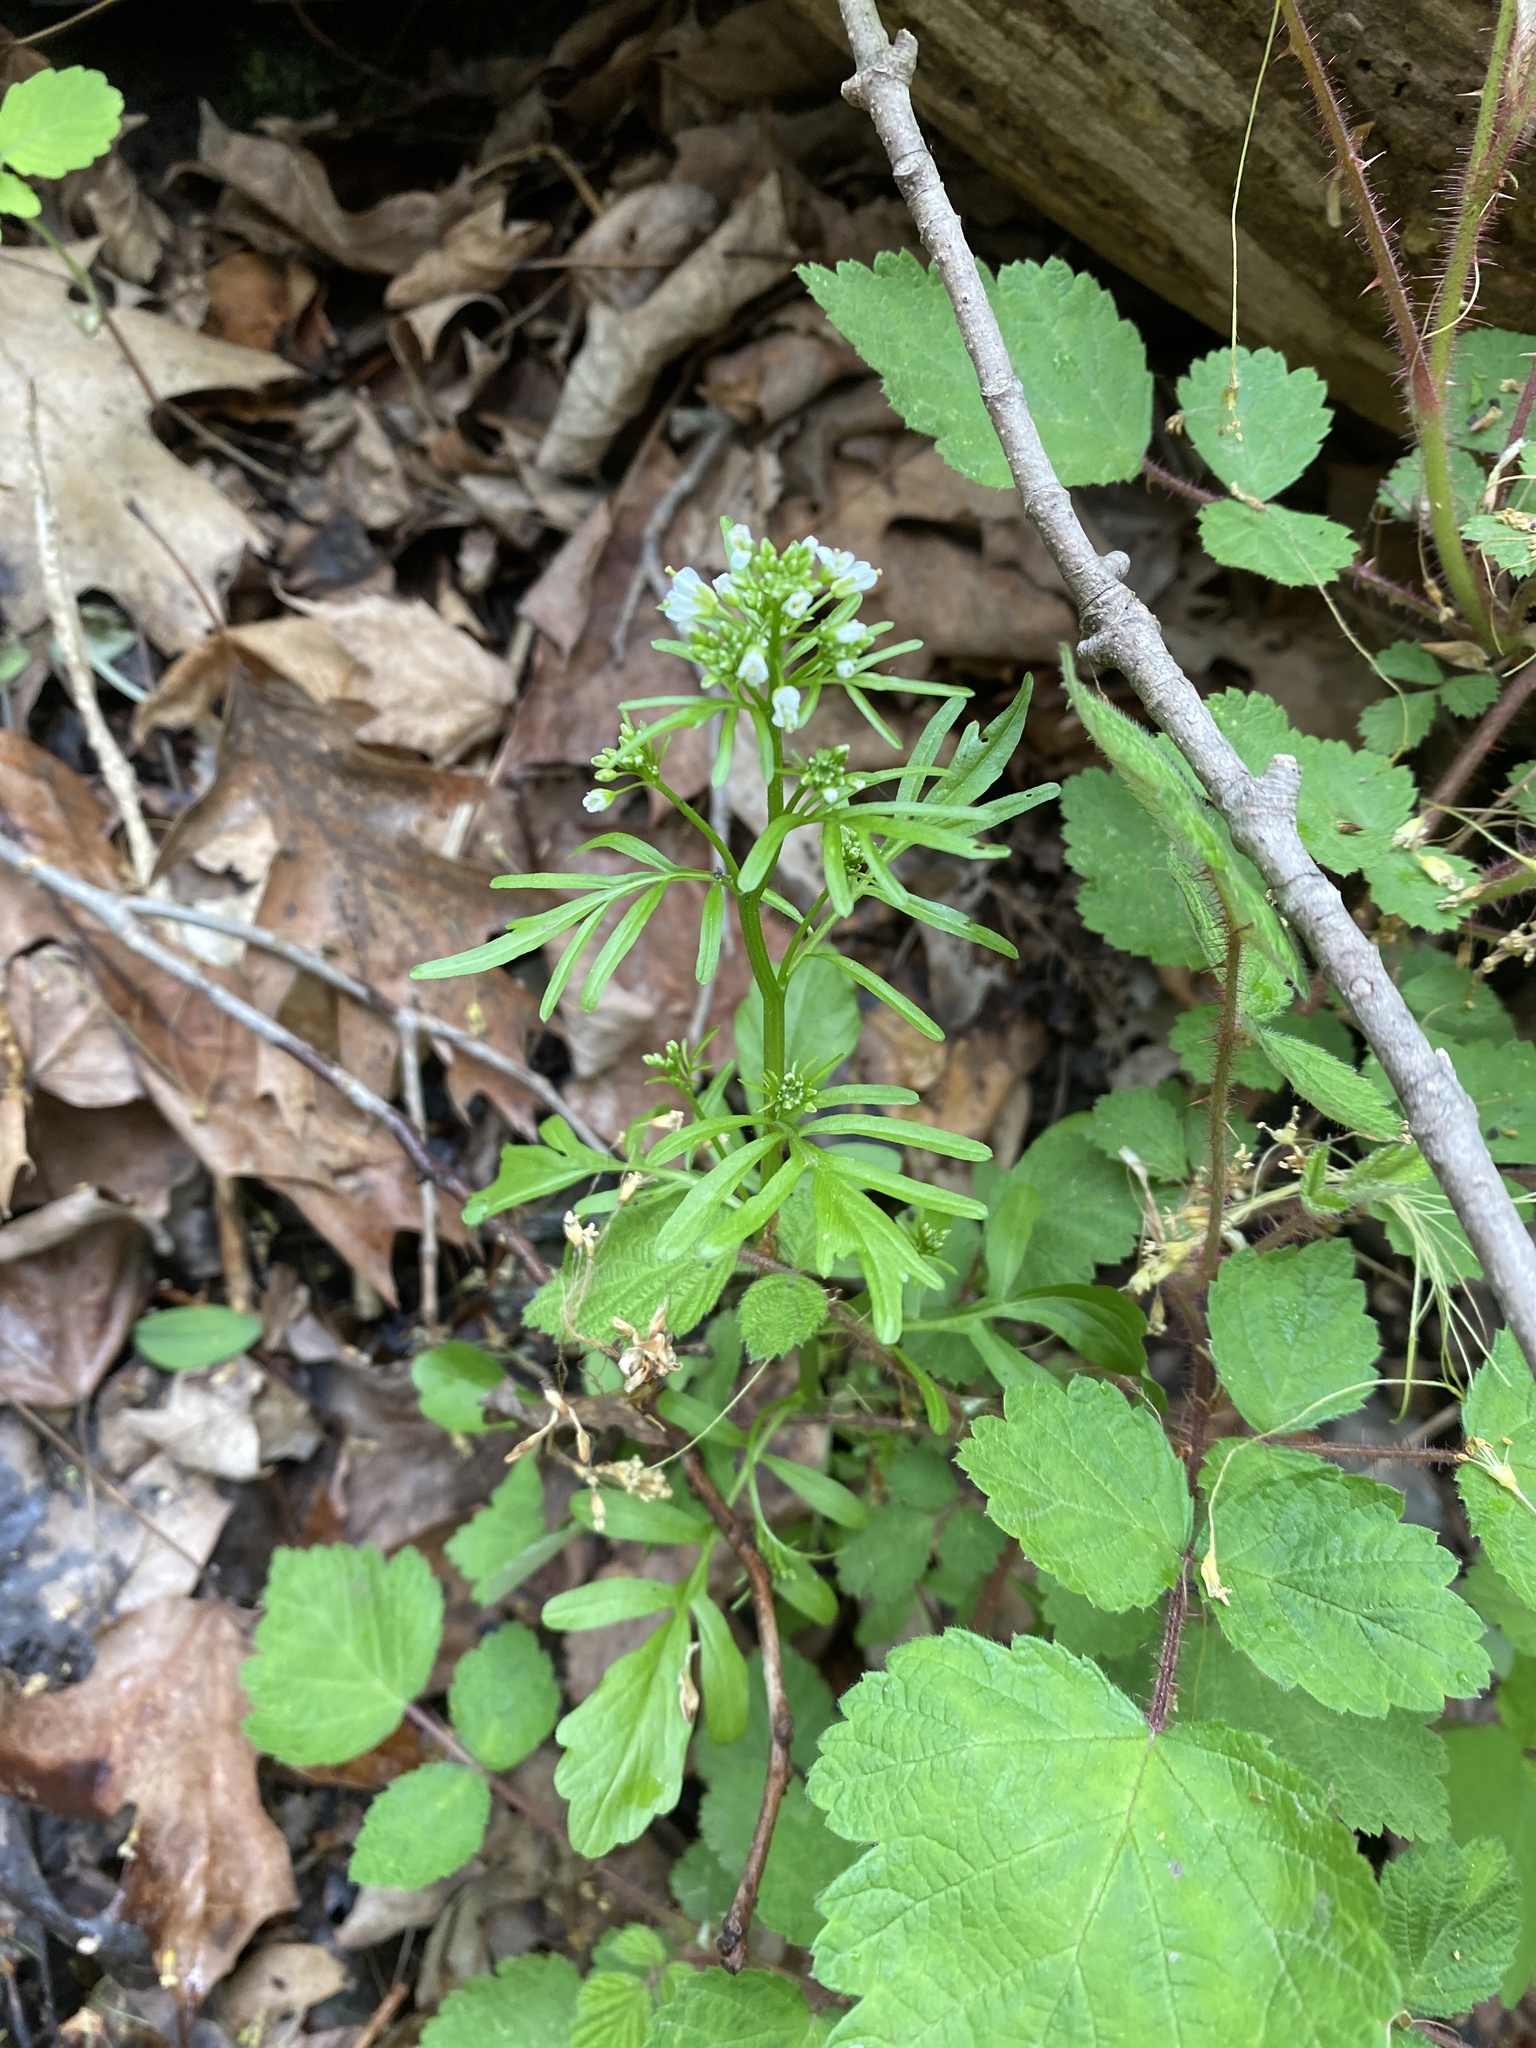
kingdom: Plantae
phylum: Tracheophyta
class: Magnoliopsida
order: Brassicales
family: Brassicaceae
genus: Cardamine
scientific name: Cardamine pensylvanica
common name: Pennsylvania bittercress
